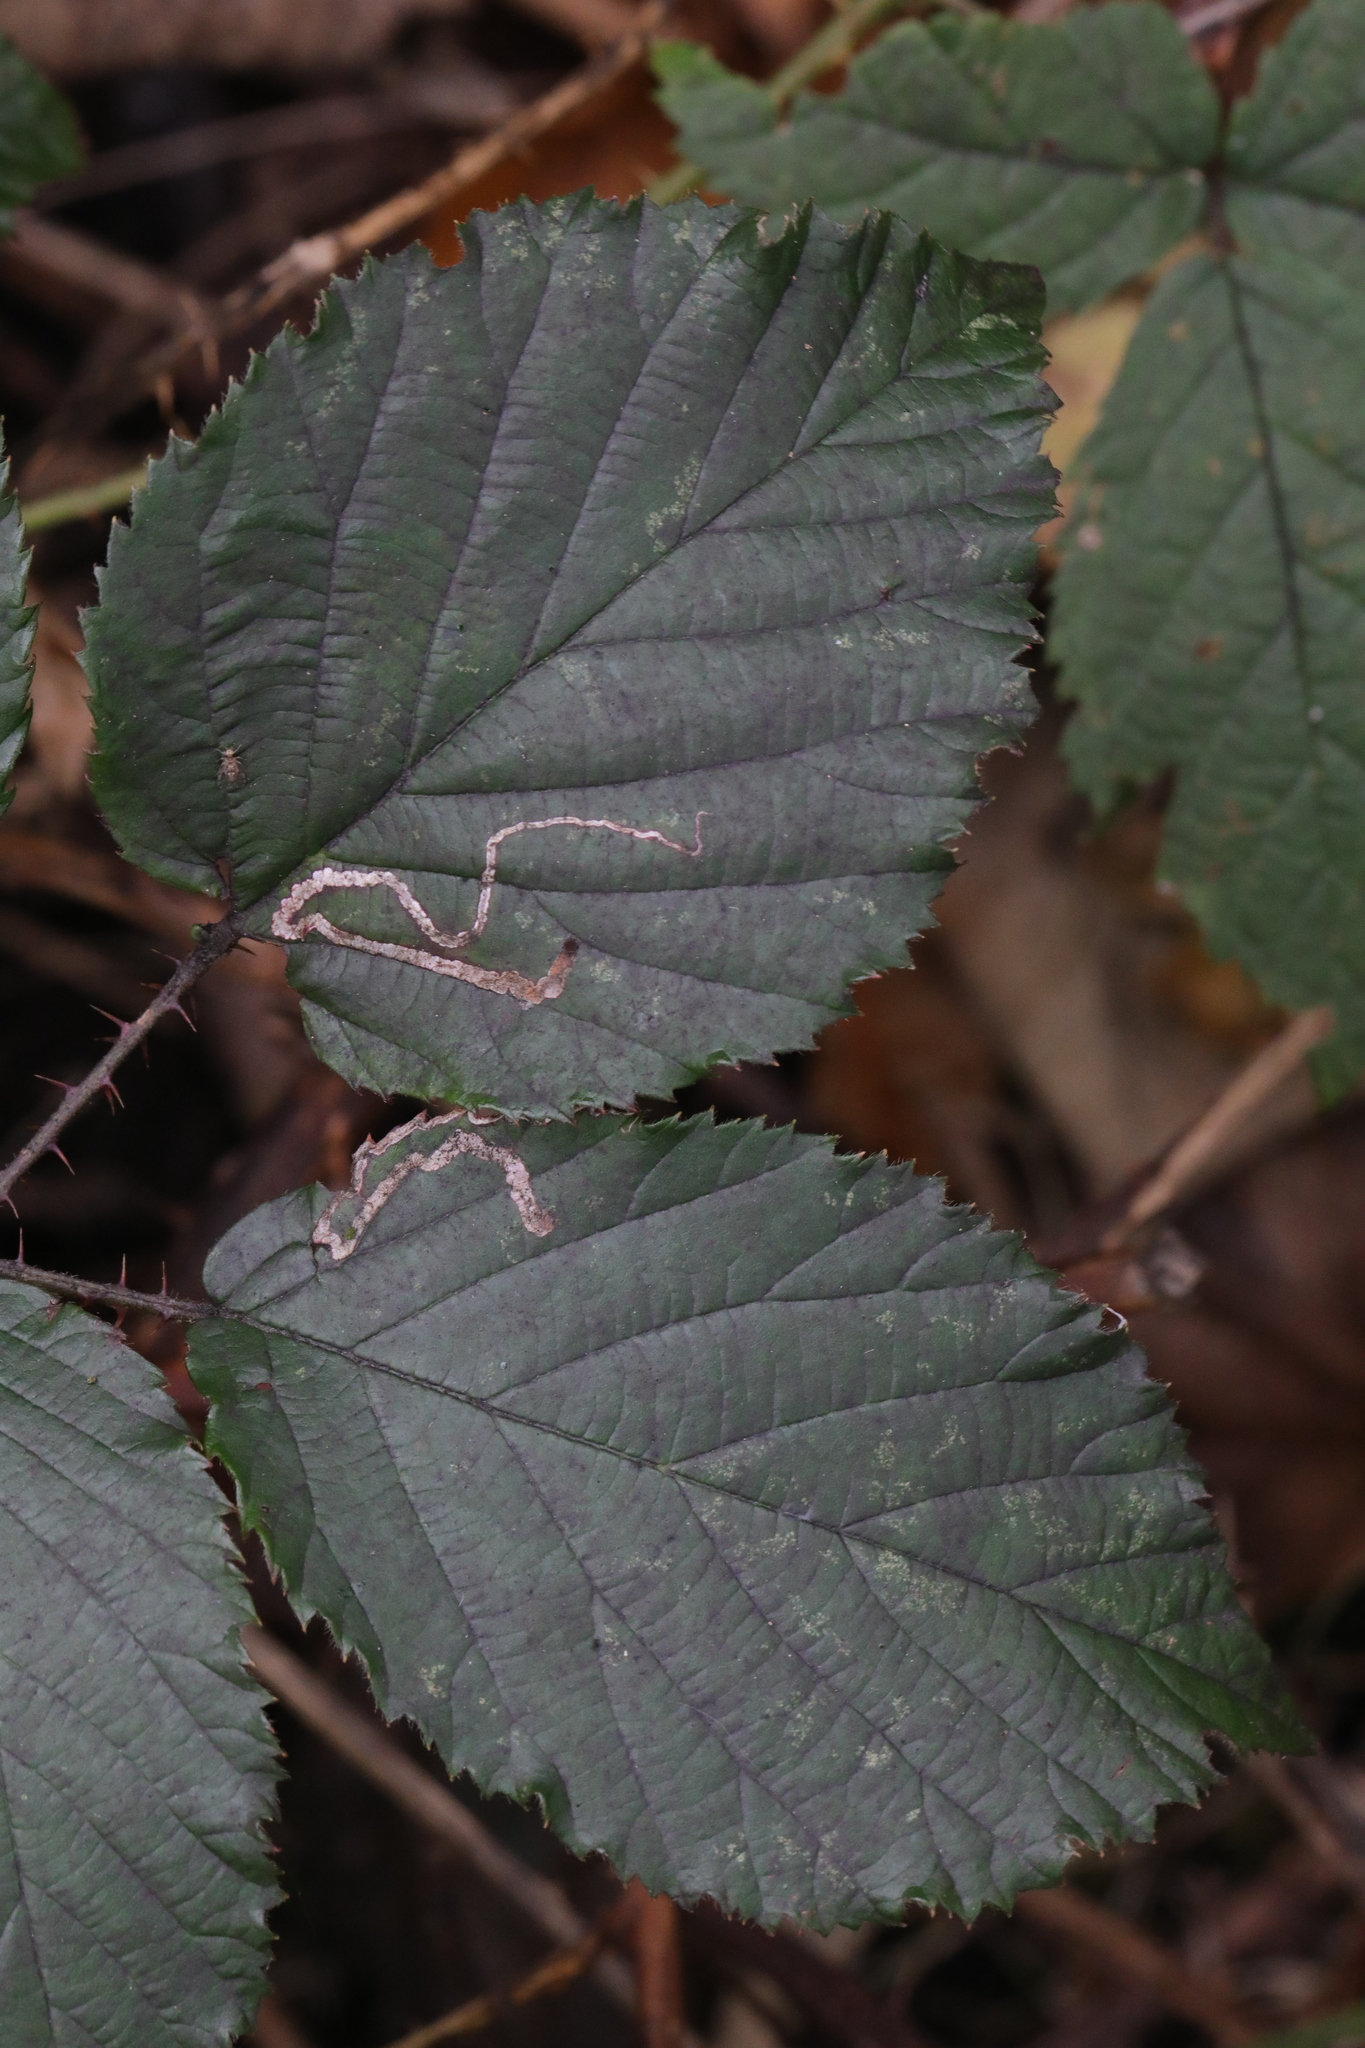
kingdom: Animalia
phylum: Arthropoda
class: Insecta
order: Lepidoptera
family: Nepticulidae
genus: Stigmella
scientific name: Stigmella aurella
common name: Golden pigmy
